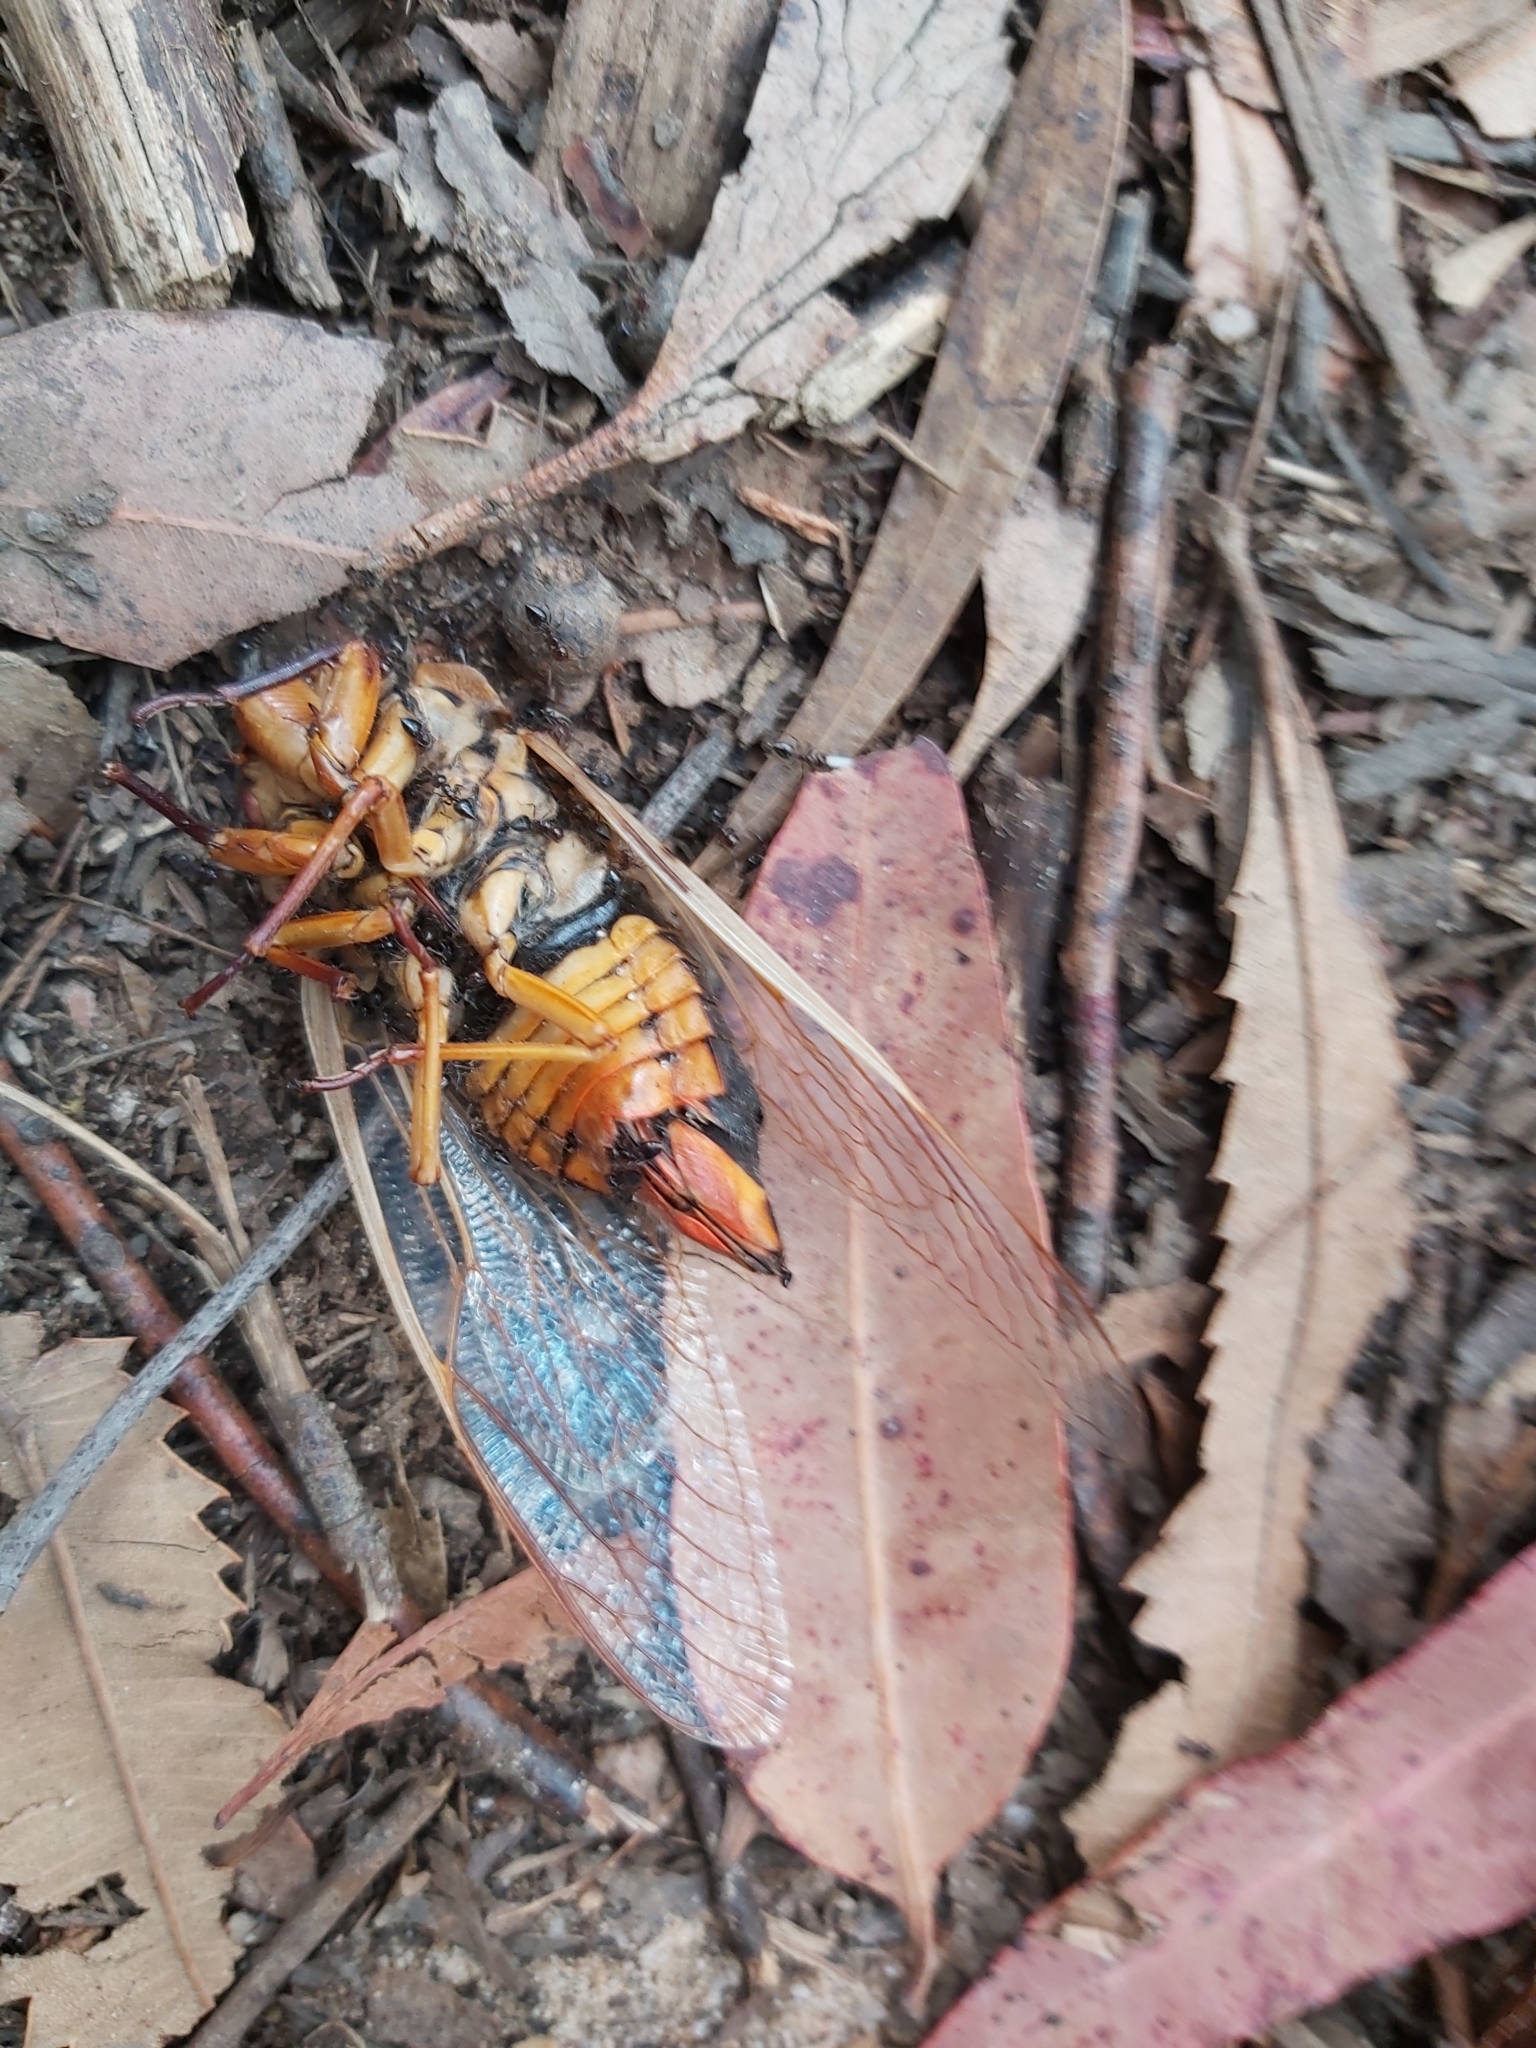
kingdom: Animalia
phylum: Arthropoda
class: Insecta
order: Hemiptera
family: Cicadidae
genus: Cyclochila
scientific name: Cyclochila australasiae
